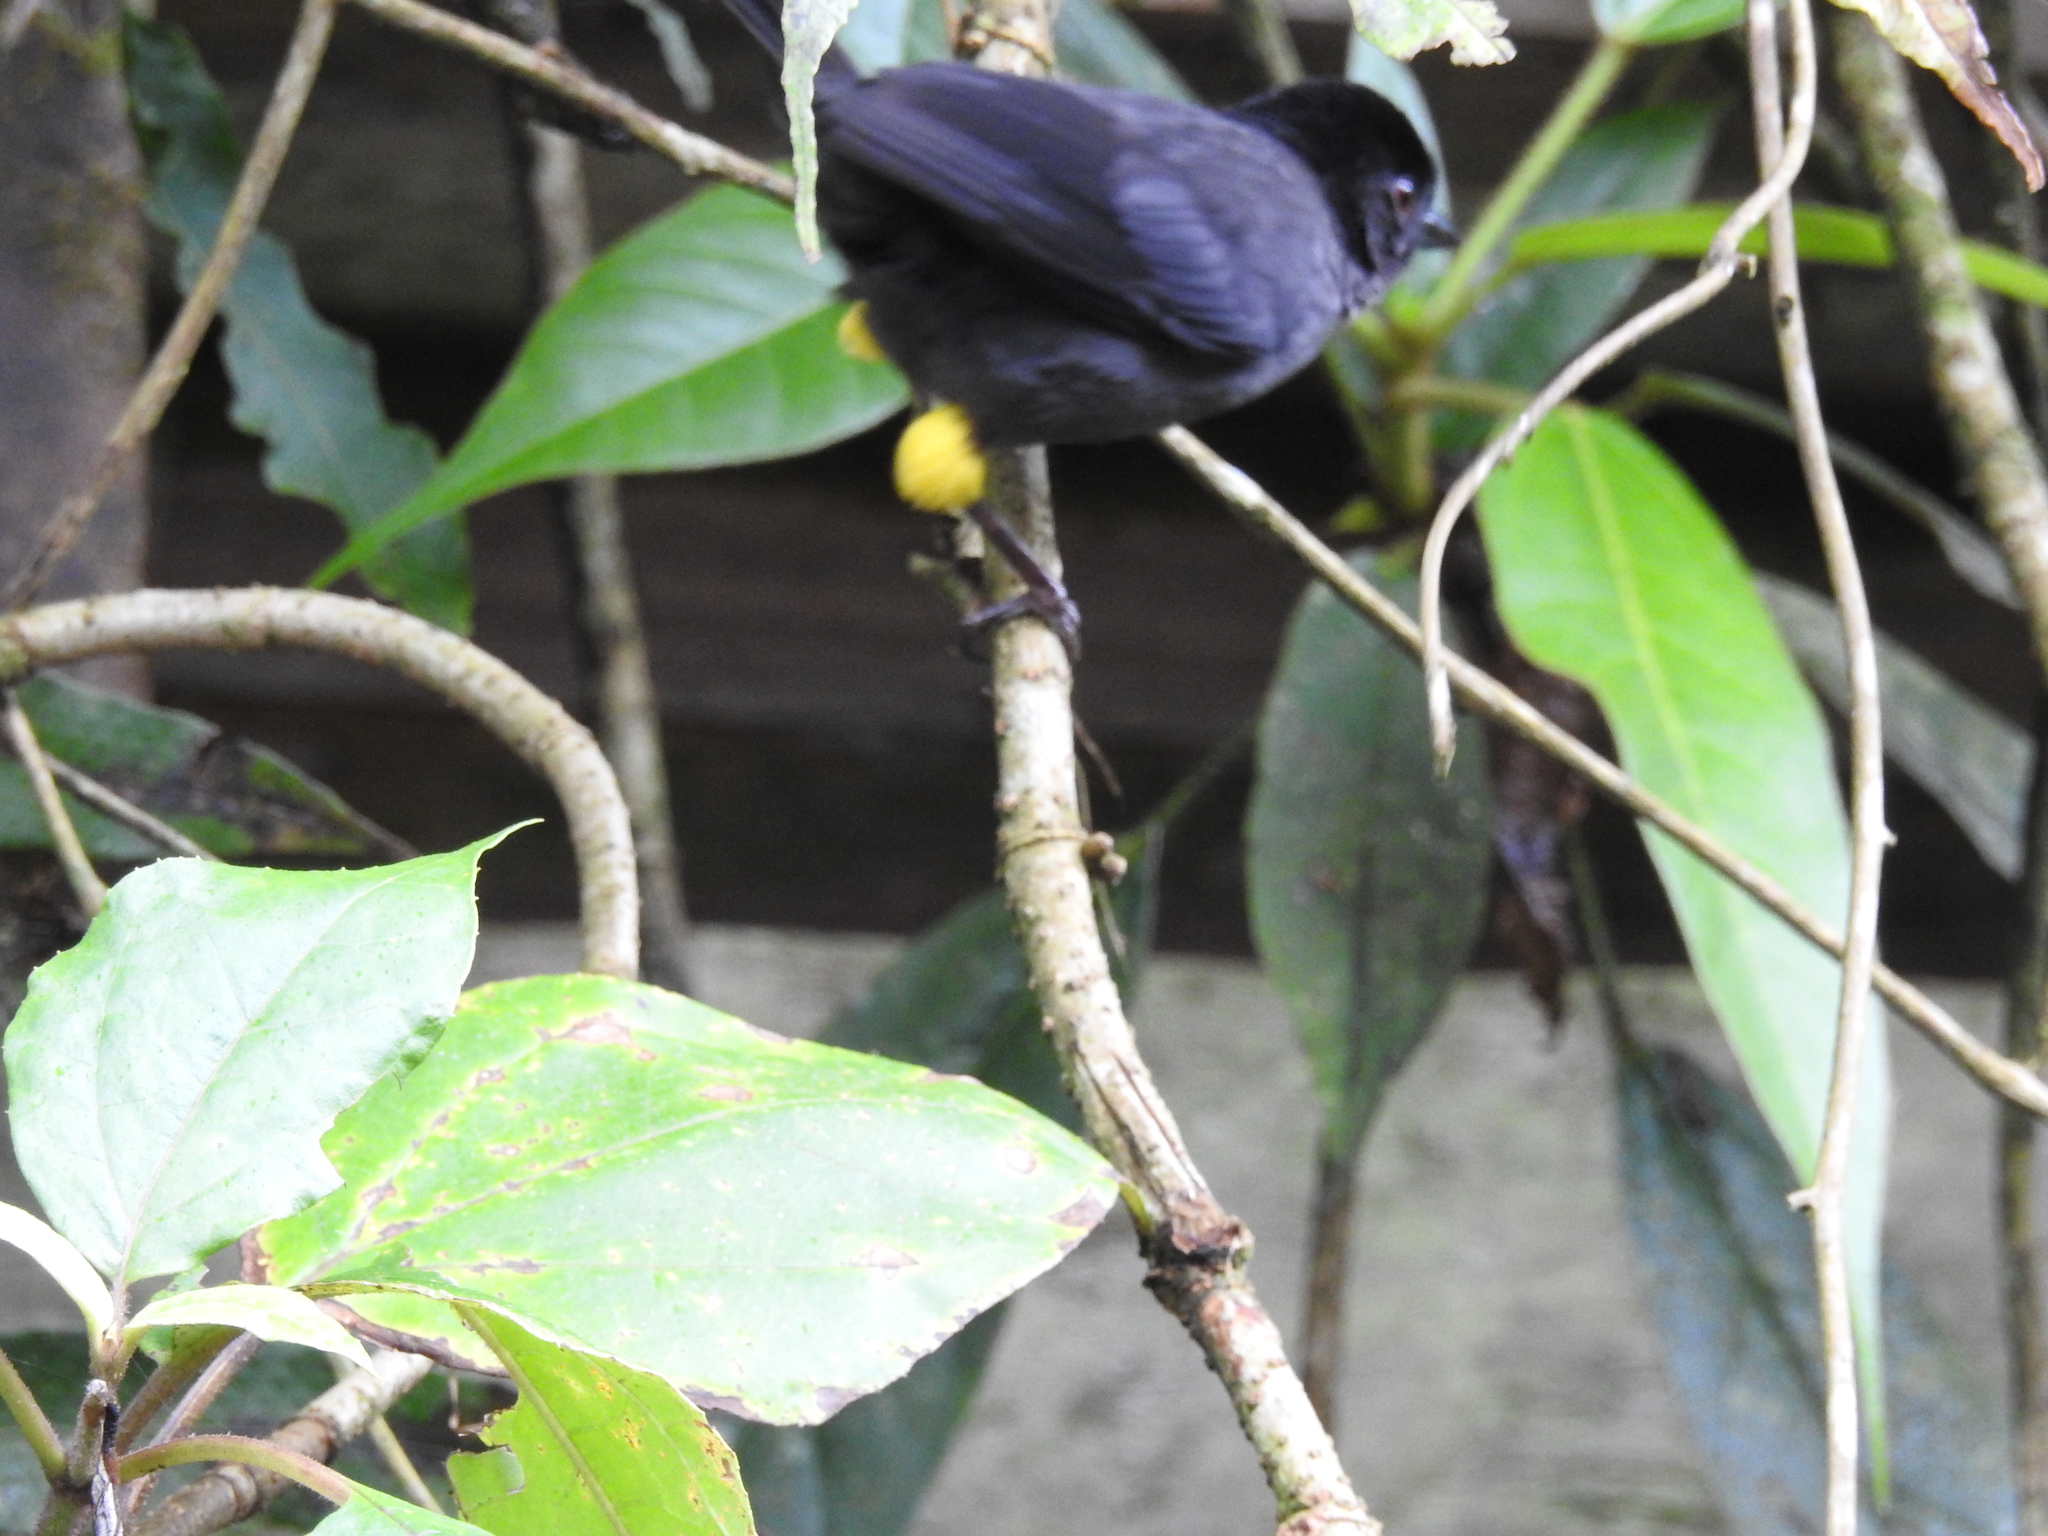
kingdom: Animalia
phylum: Chordata
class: Aves
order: Passeriformes
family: Passerellidae
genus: Atlapetes
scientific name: Atlapetes tibialis
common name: Yellow-thighed brushfinch
